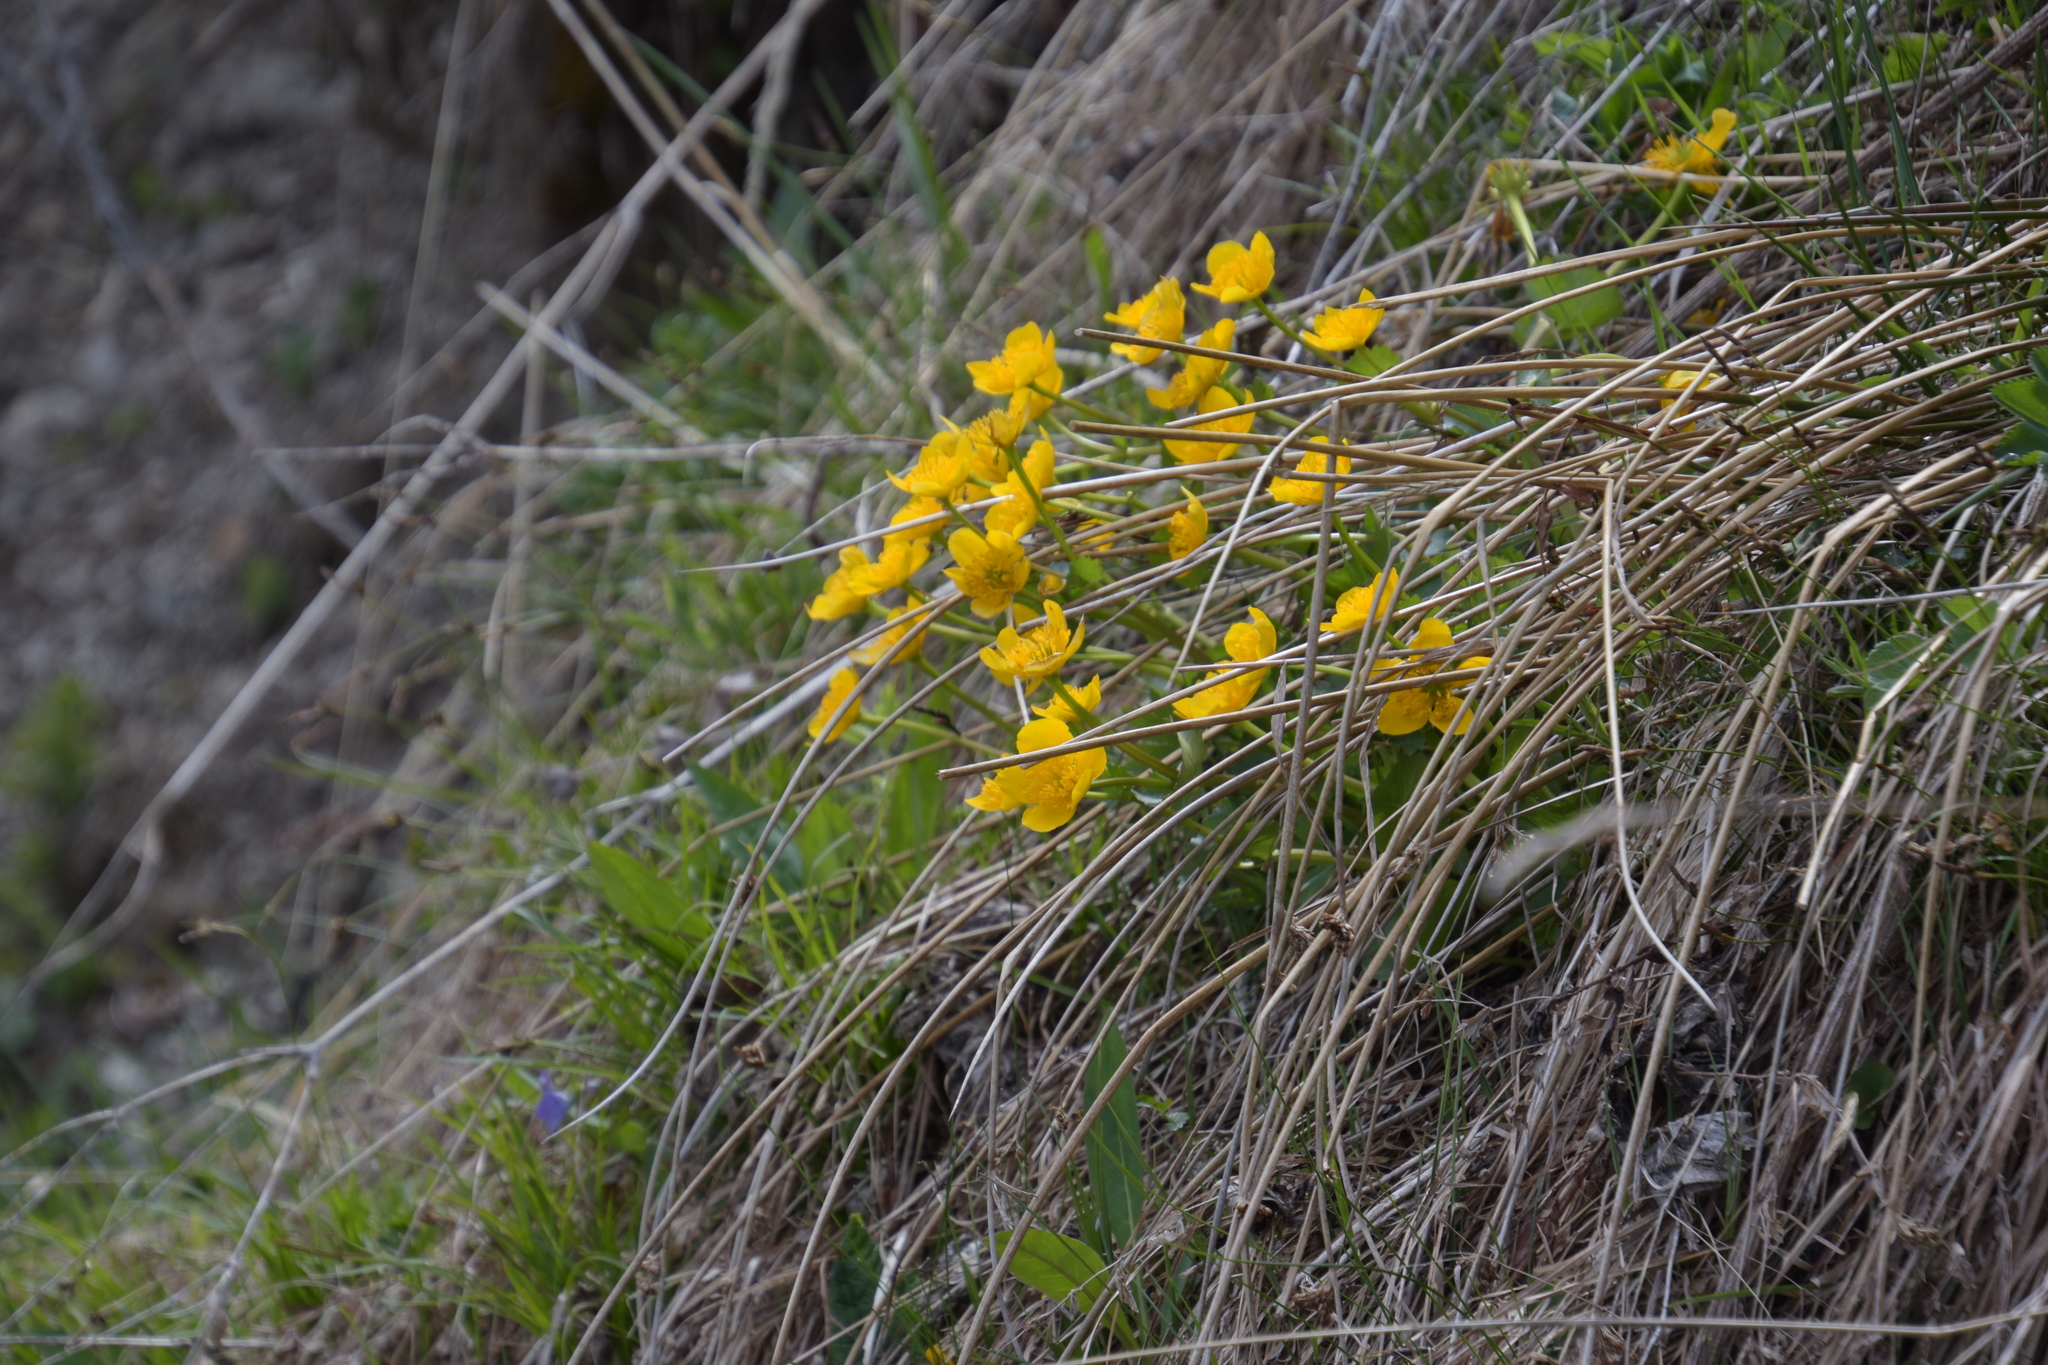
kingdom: Plantae
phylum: Tracheophyta
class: Magnoliopsida
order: Ranunculales
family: Ranunculaceae
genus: Caltha
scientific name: Caltha palustris
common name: Marsh marigold
